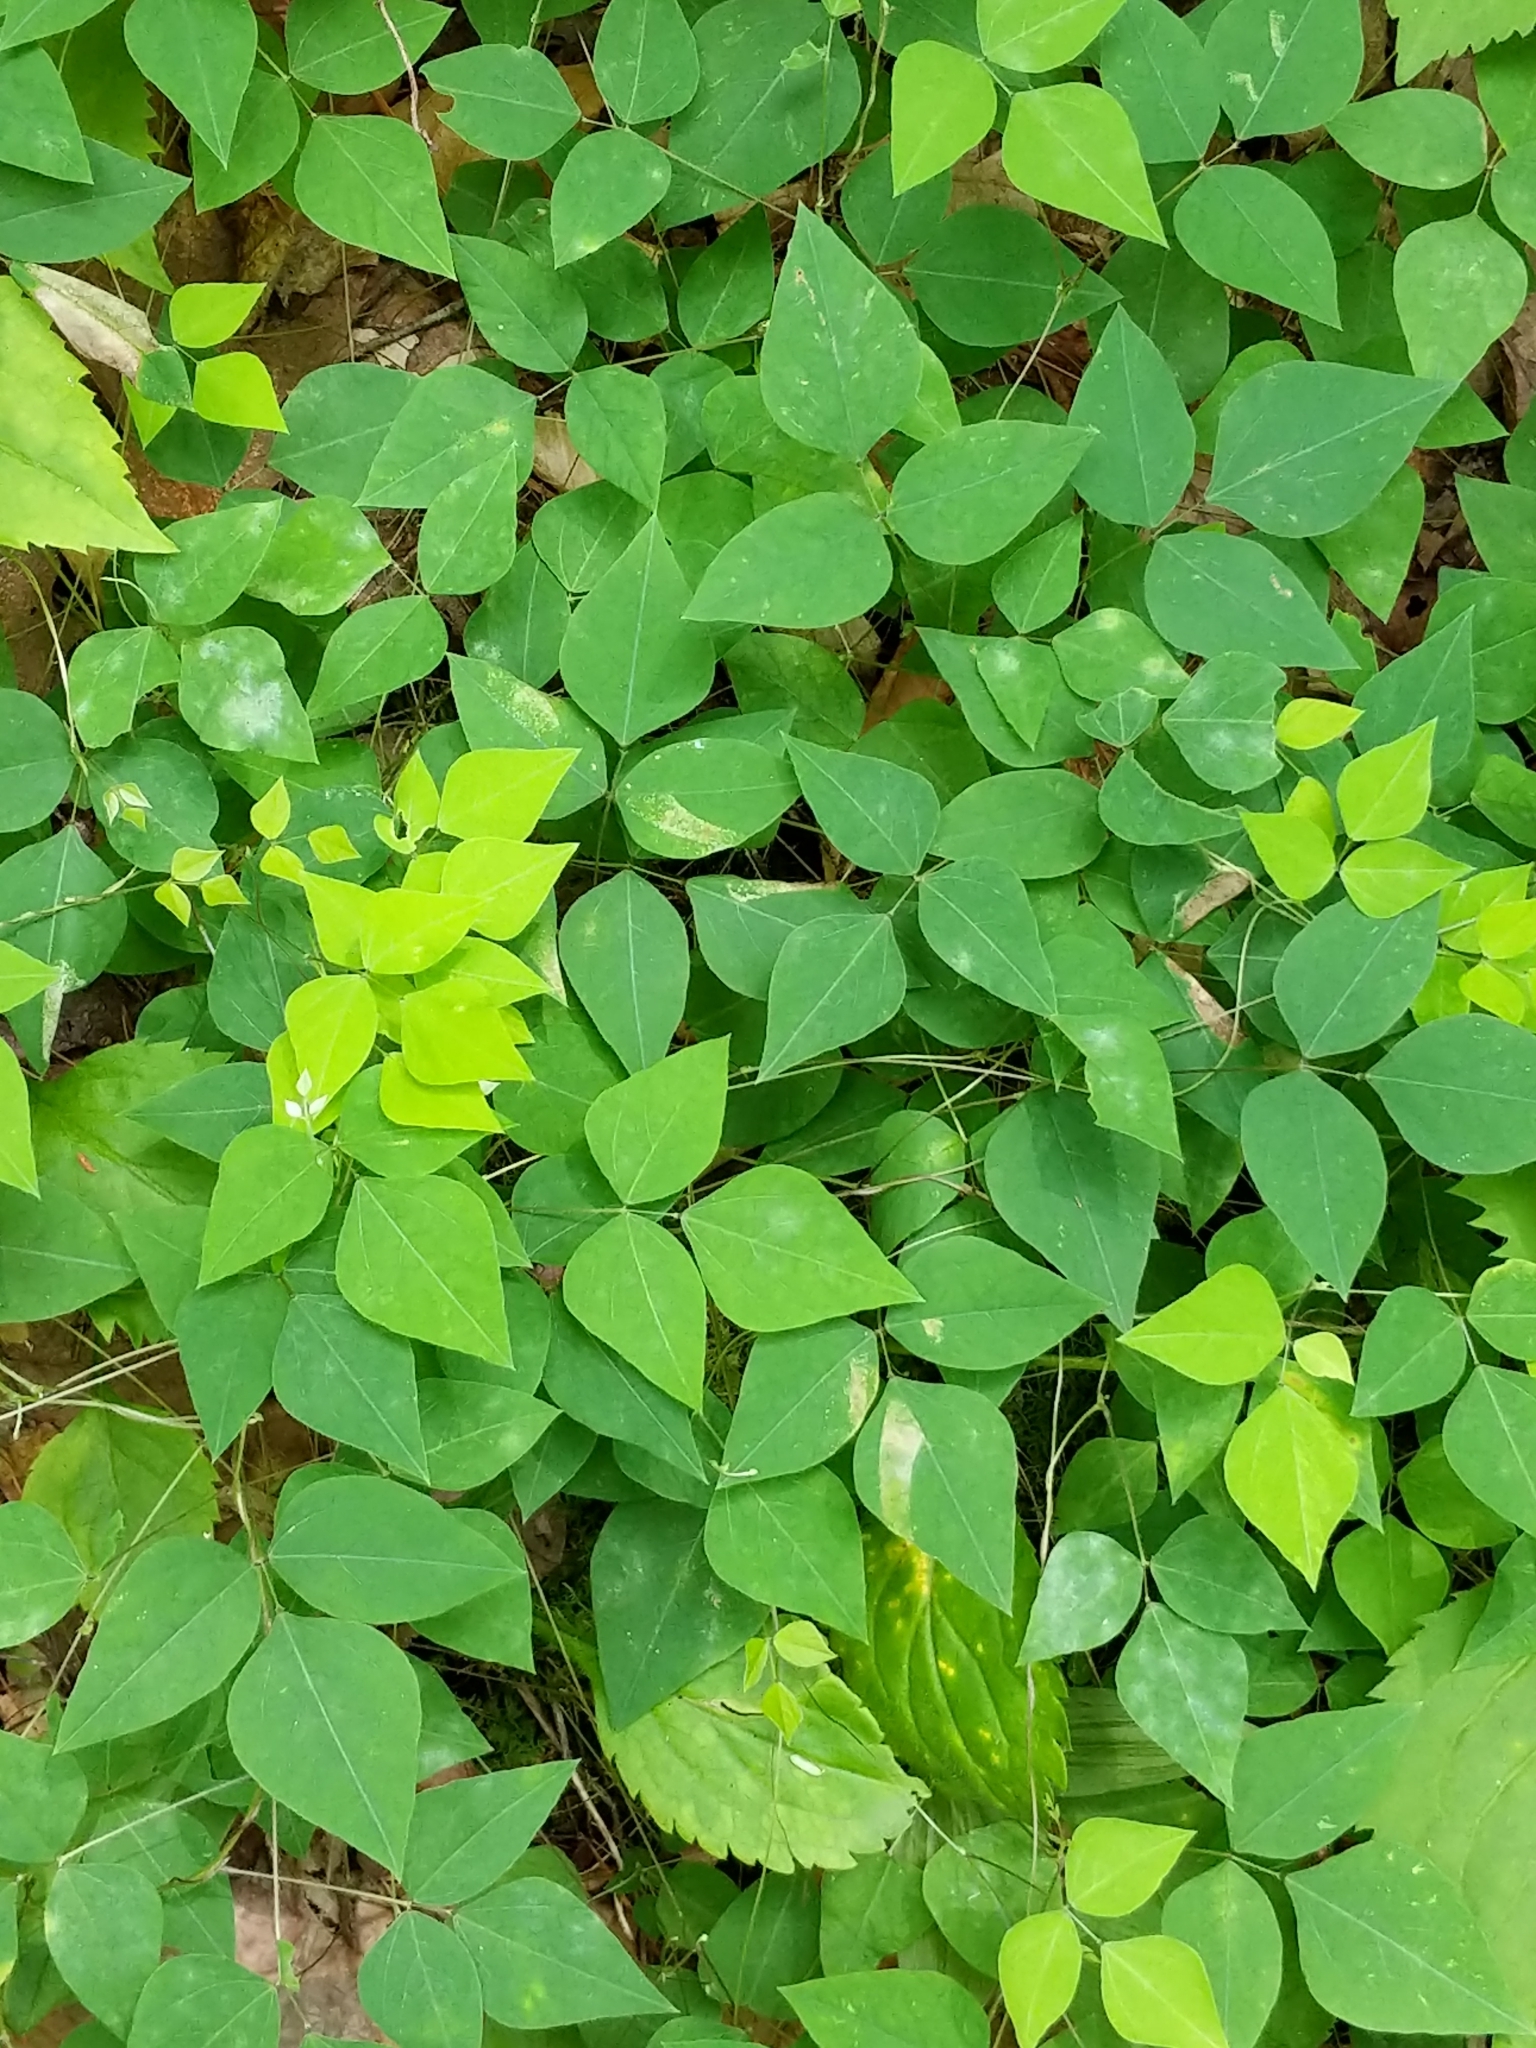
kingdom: Plantae
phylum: Tracheophyta
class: Magnoliopsida
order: Fabales
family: Fabaceae
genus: Amphicarpaea
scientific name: Amphicarpaea bracteata
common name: American hog peanut
